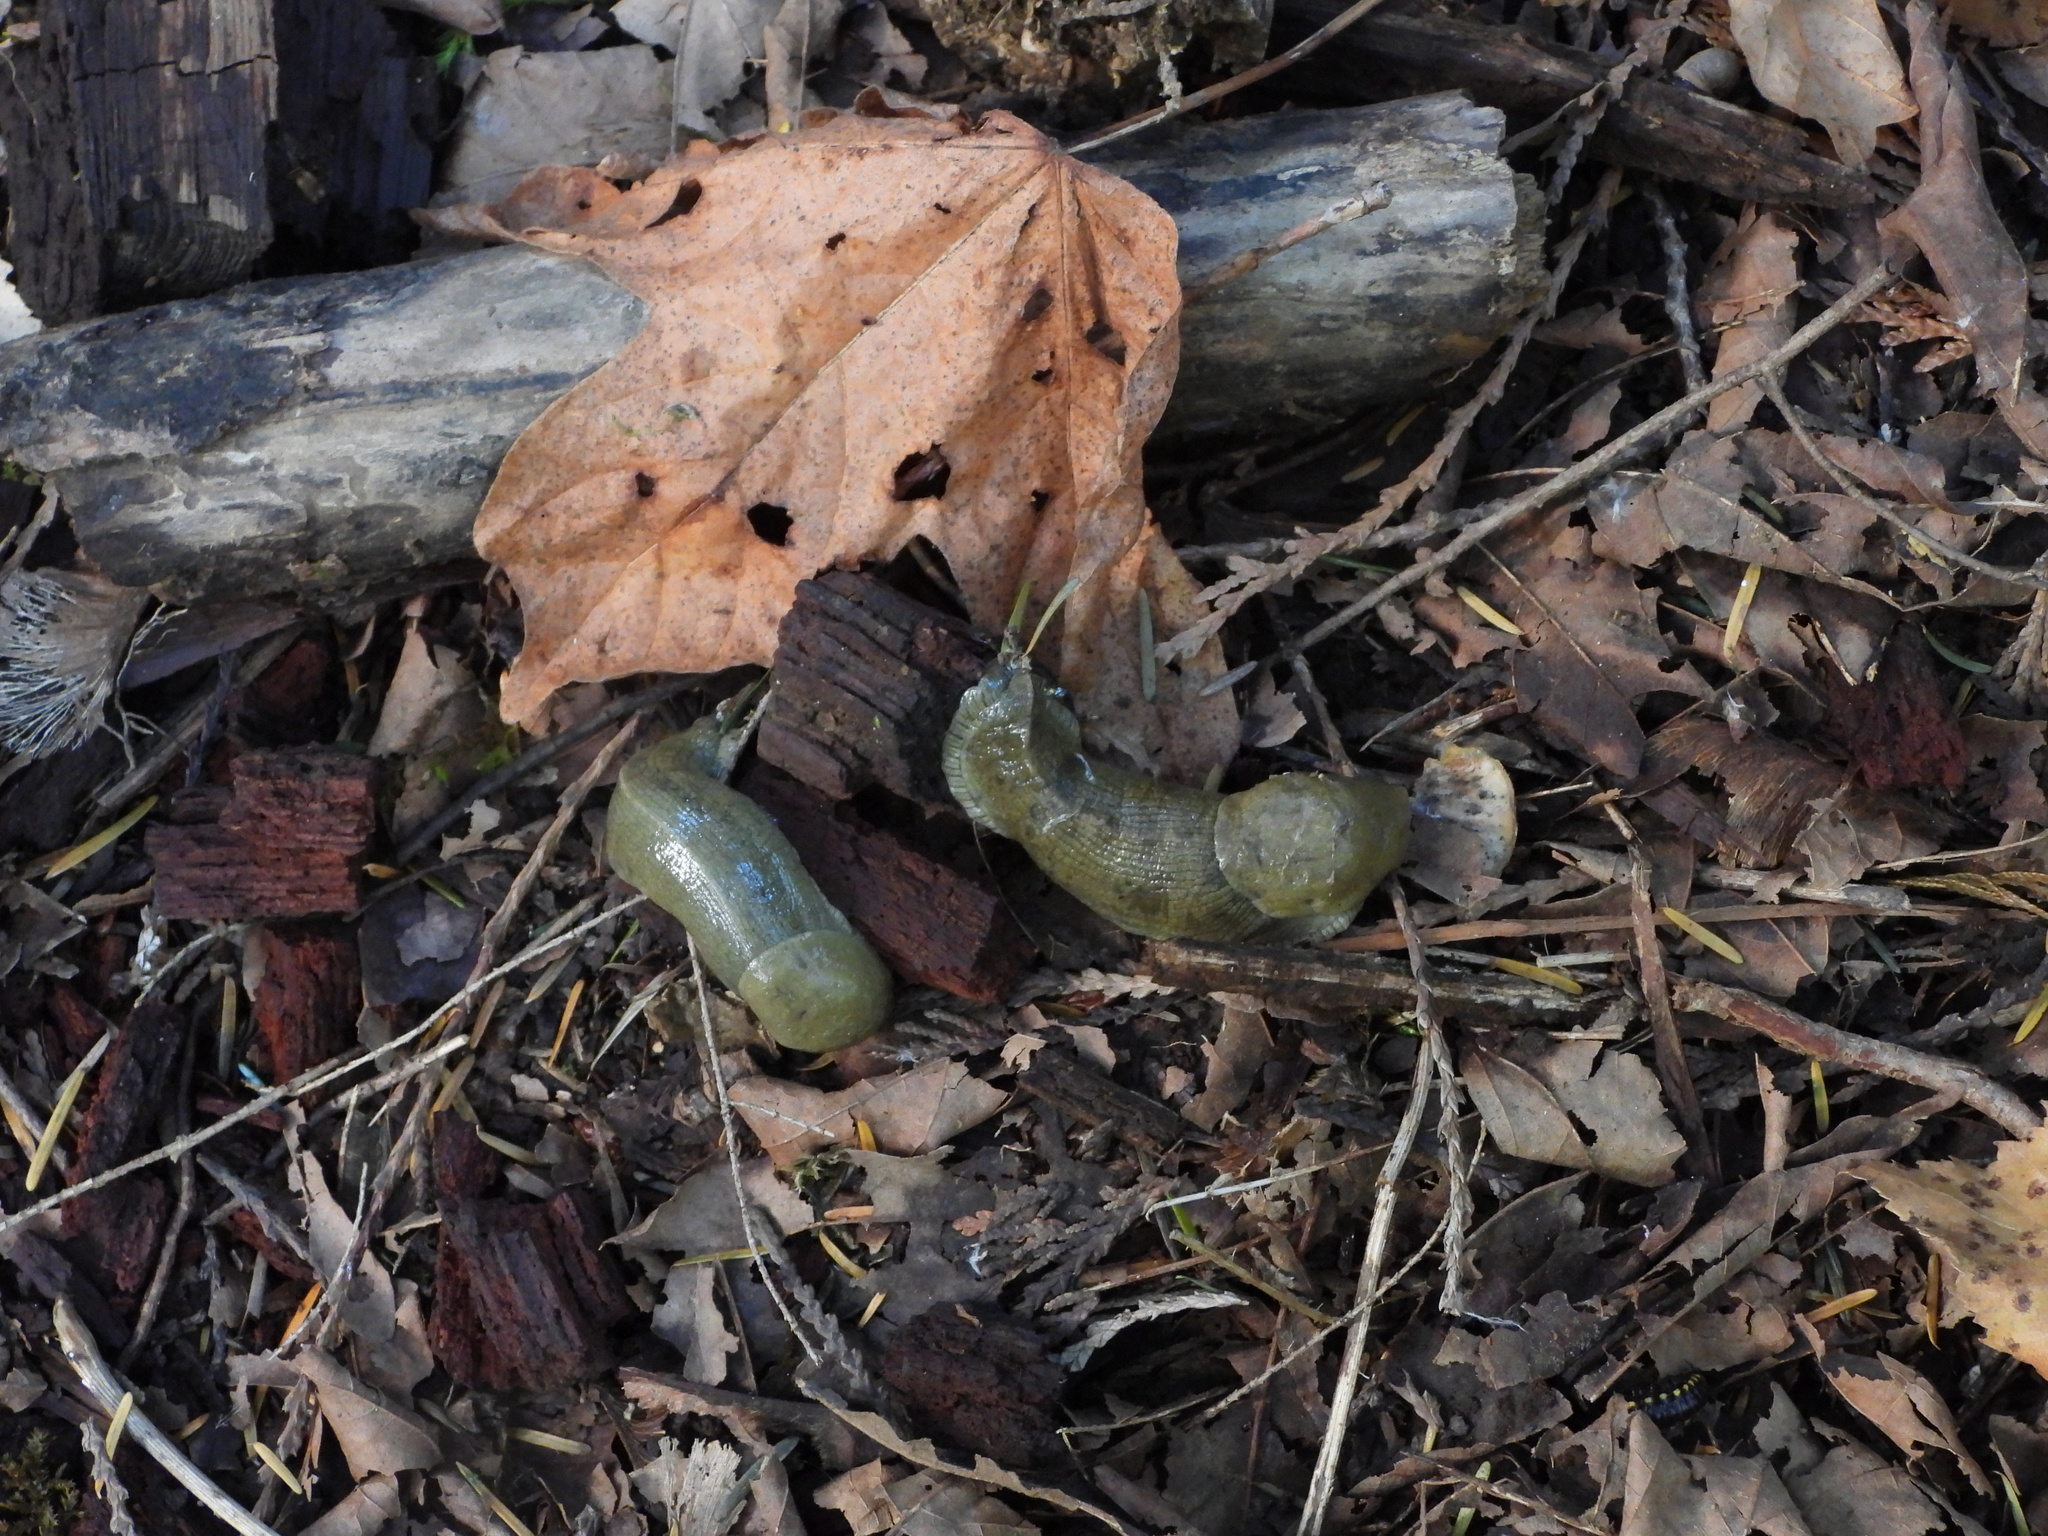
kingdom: Animalia
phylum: Mollusca
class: Gastropoda
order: Stylommatophora
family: Ariolimacidae
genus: Ariolimax
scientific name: Ariolimax columbianus
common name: Pacific banana slug
